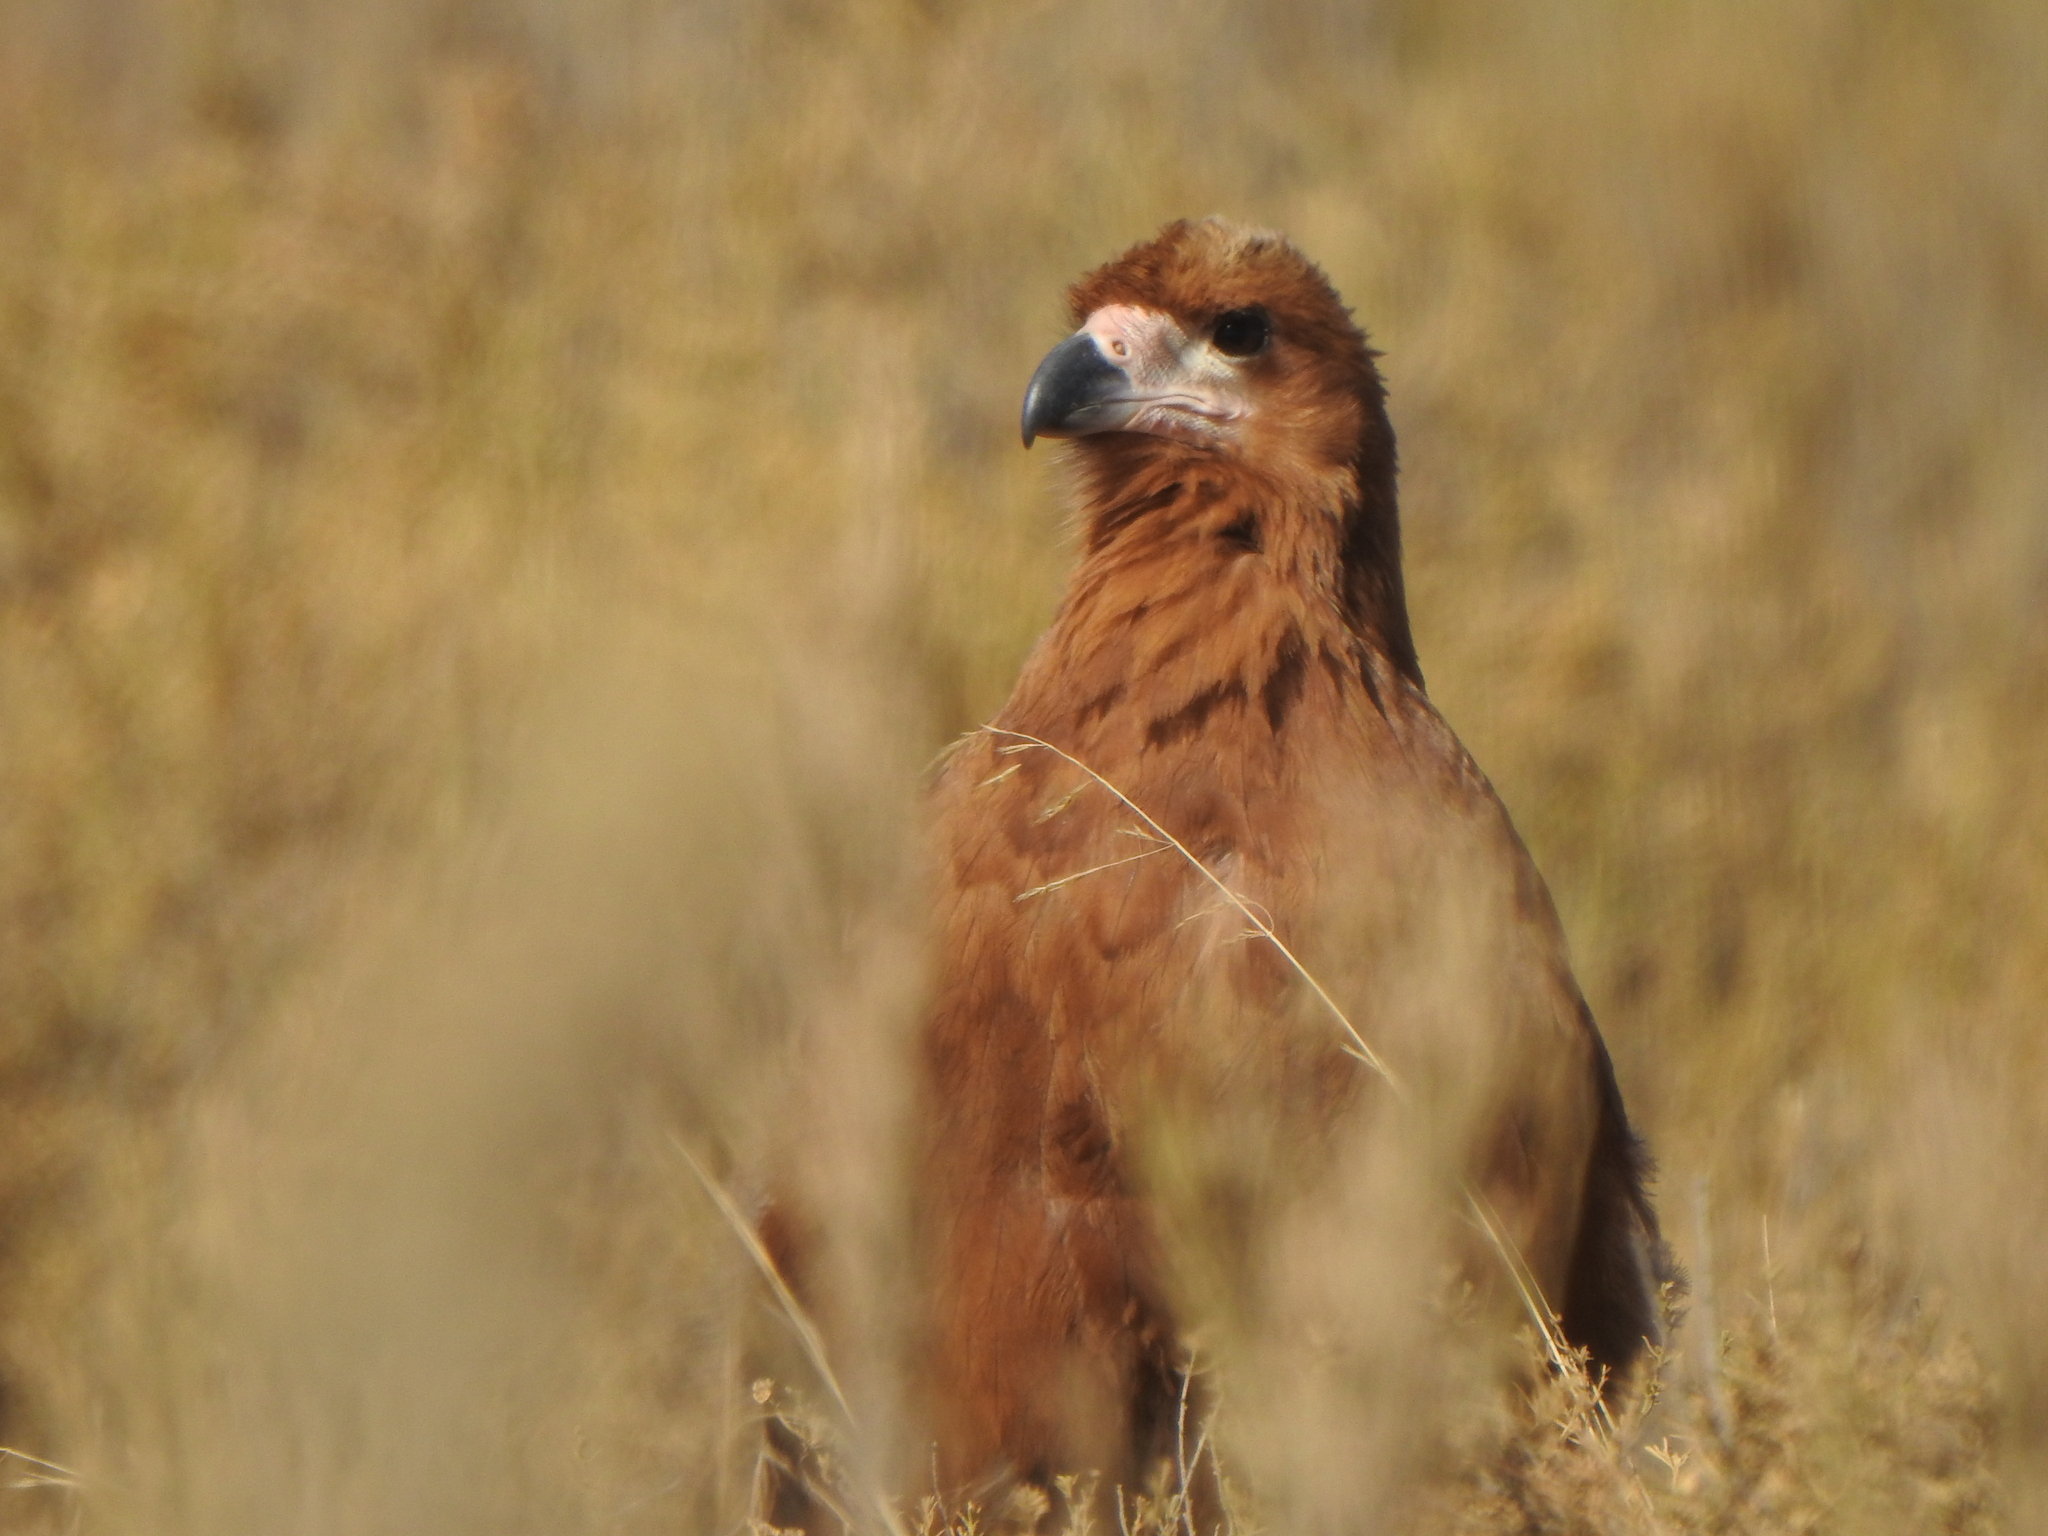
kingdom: Animalia
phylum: Chordata
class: Aves
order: Falconiformes
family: Falconidae
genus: Daptrius
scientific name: Daptrius
